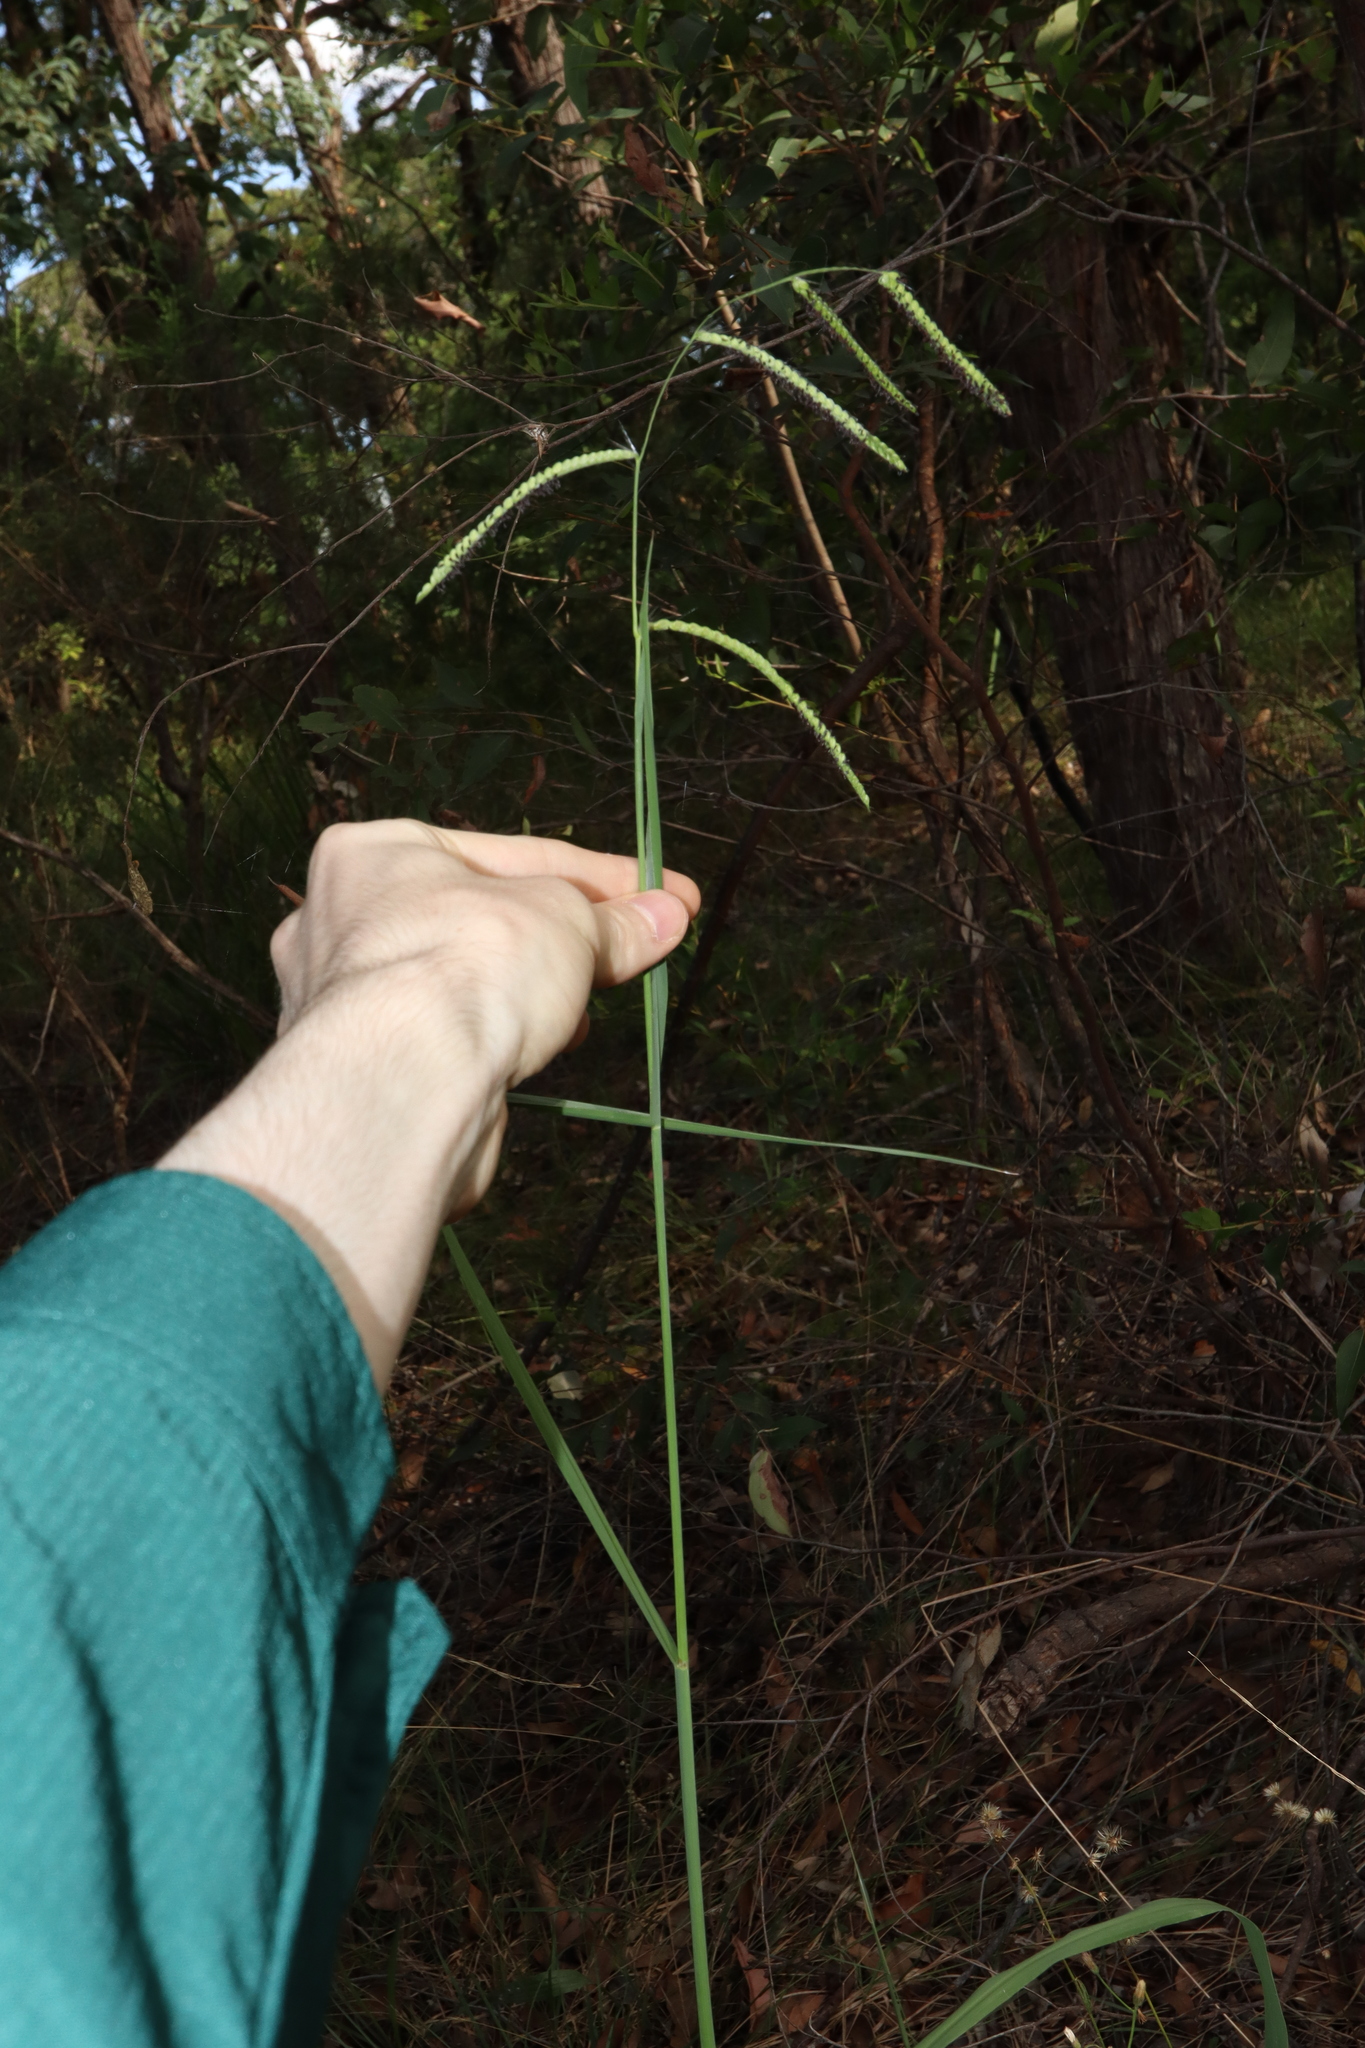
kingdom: Plantae
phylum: Tracheophyta
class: Liliopsida
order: Poales
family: Poaceae
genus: Paspalum
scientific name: Paspalum dilatatum
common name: Dallisgrass
